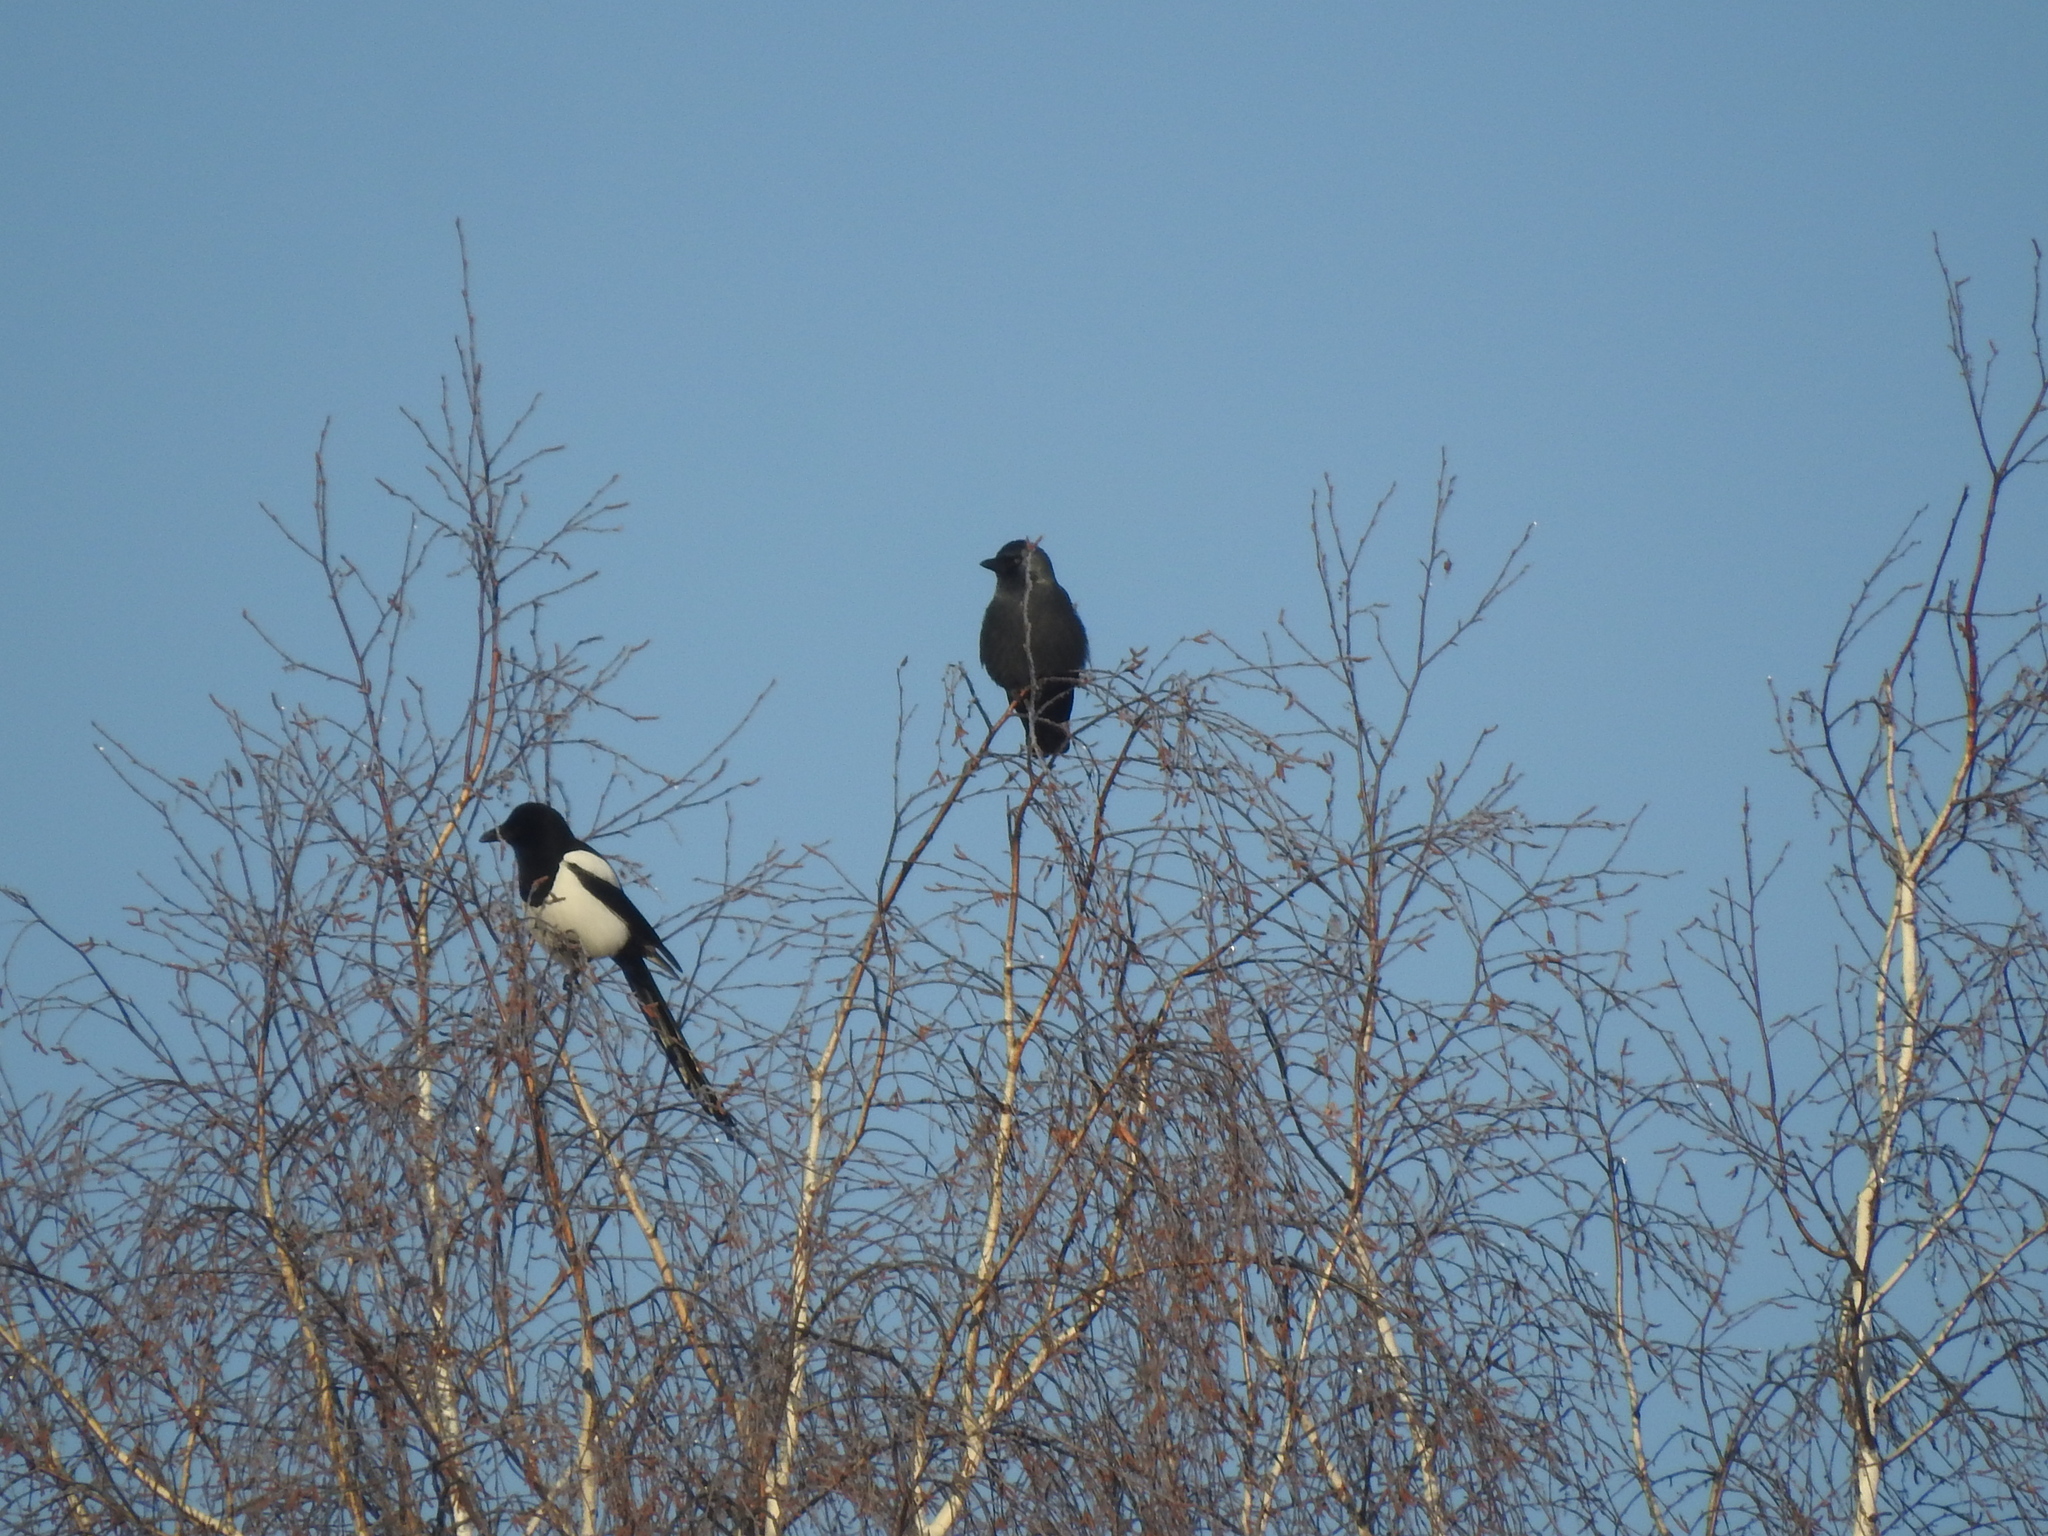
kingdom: Animalia
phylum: Chordata
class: Aves
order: Passeriformes
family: Corvidae
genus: Coloeus
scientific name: Coloeus monedula
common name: Western jackdaw
